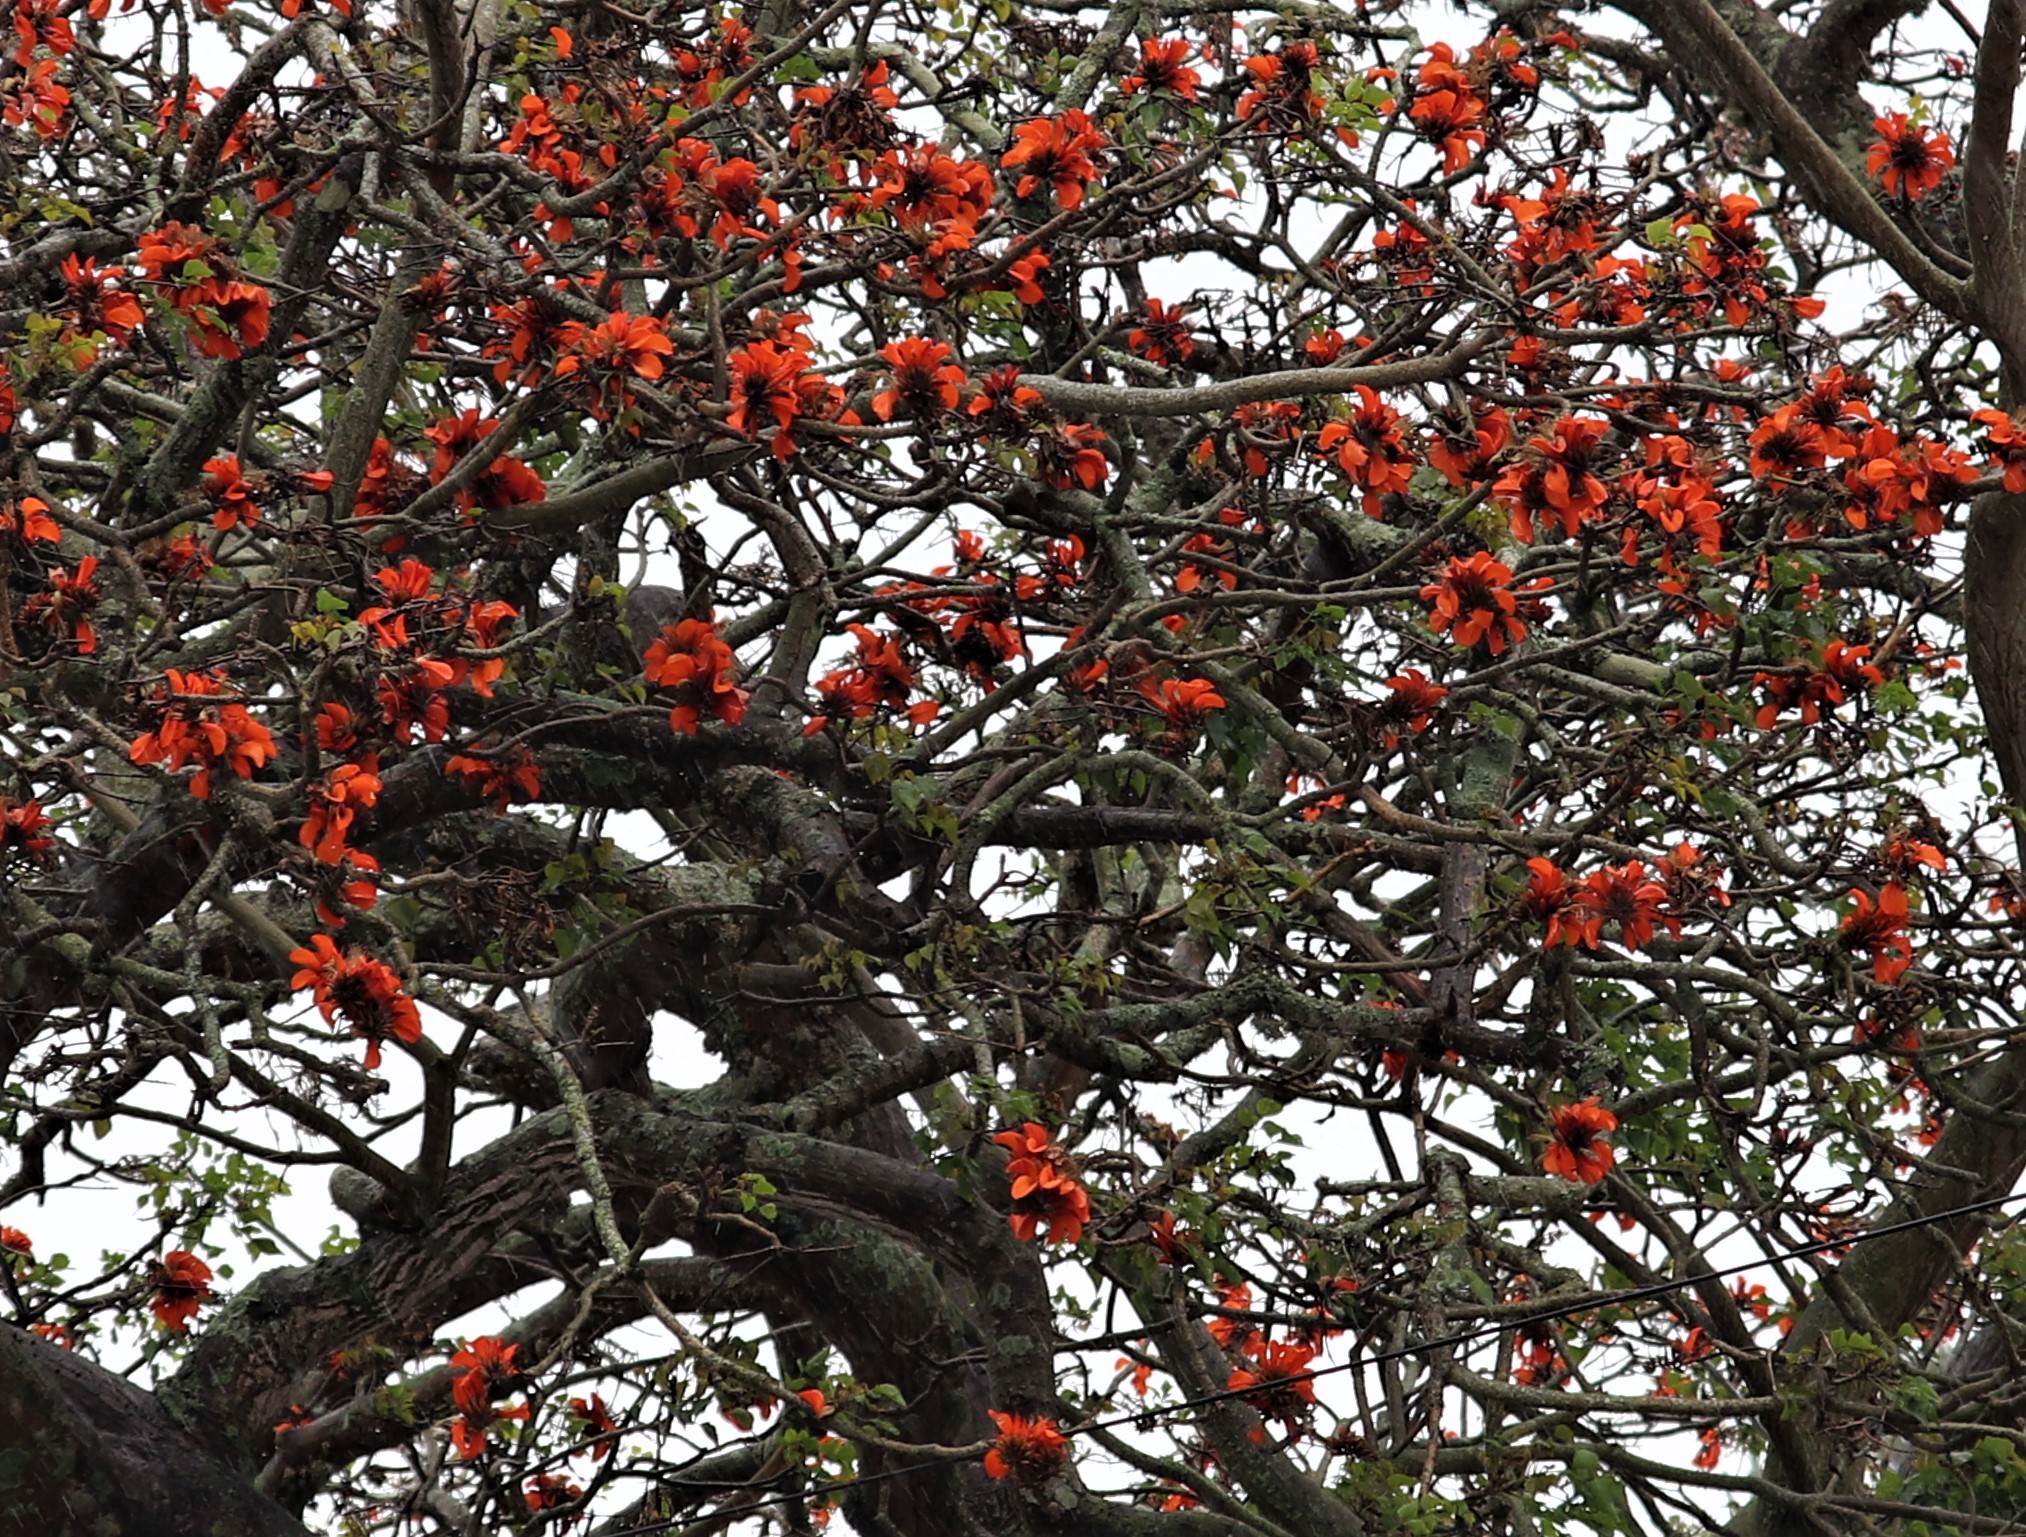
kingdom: Plantae
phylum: Tracheophyta
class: Magnoliopsida
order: Fabales
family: Fabaceae
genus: Erythrina
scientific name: Erythrina caffra
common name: Coast coral tree
